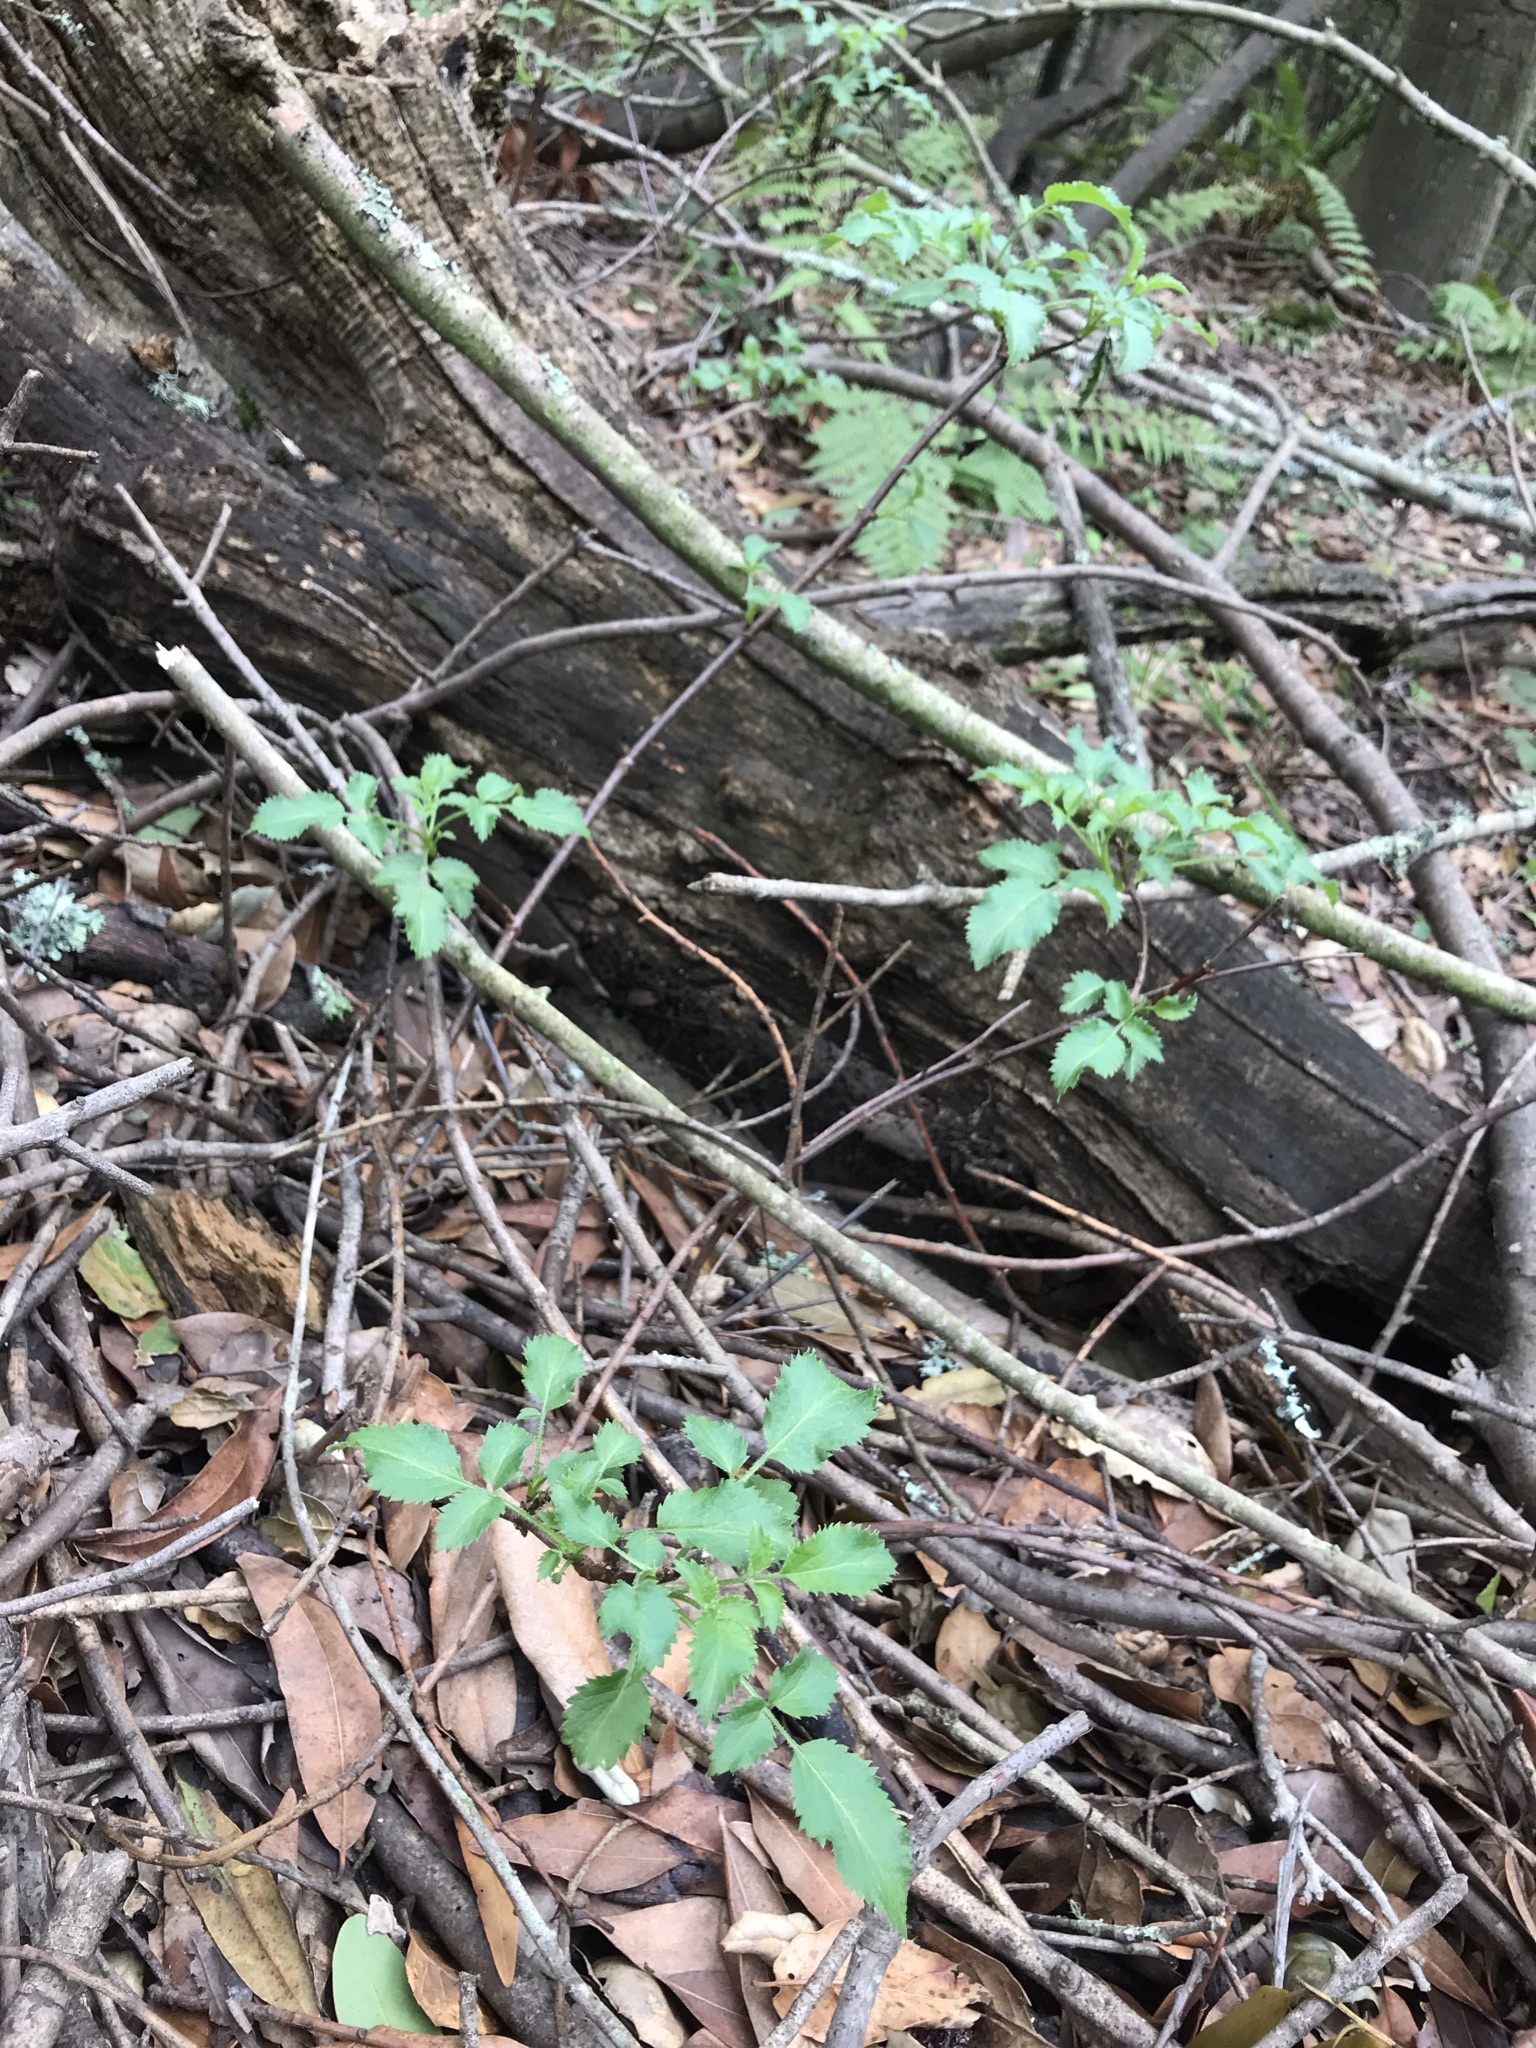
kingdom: Plantae
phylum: Tracheophyta
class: Magnoliopsida
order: Dipsacales
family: Viburnaceae
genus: Sambucus
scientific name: Sambucus cerulea
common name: Blue elder
